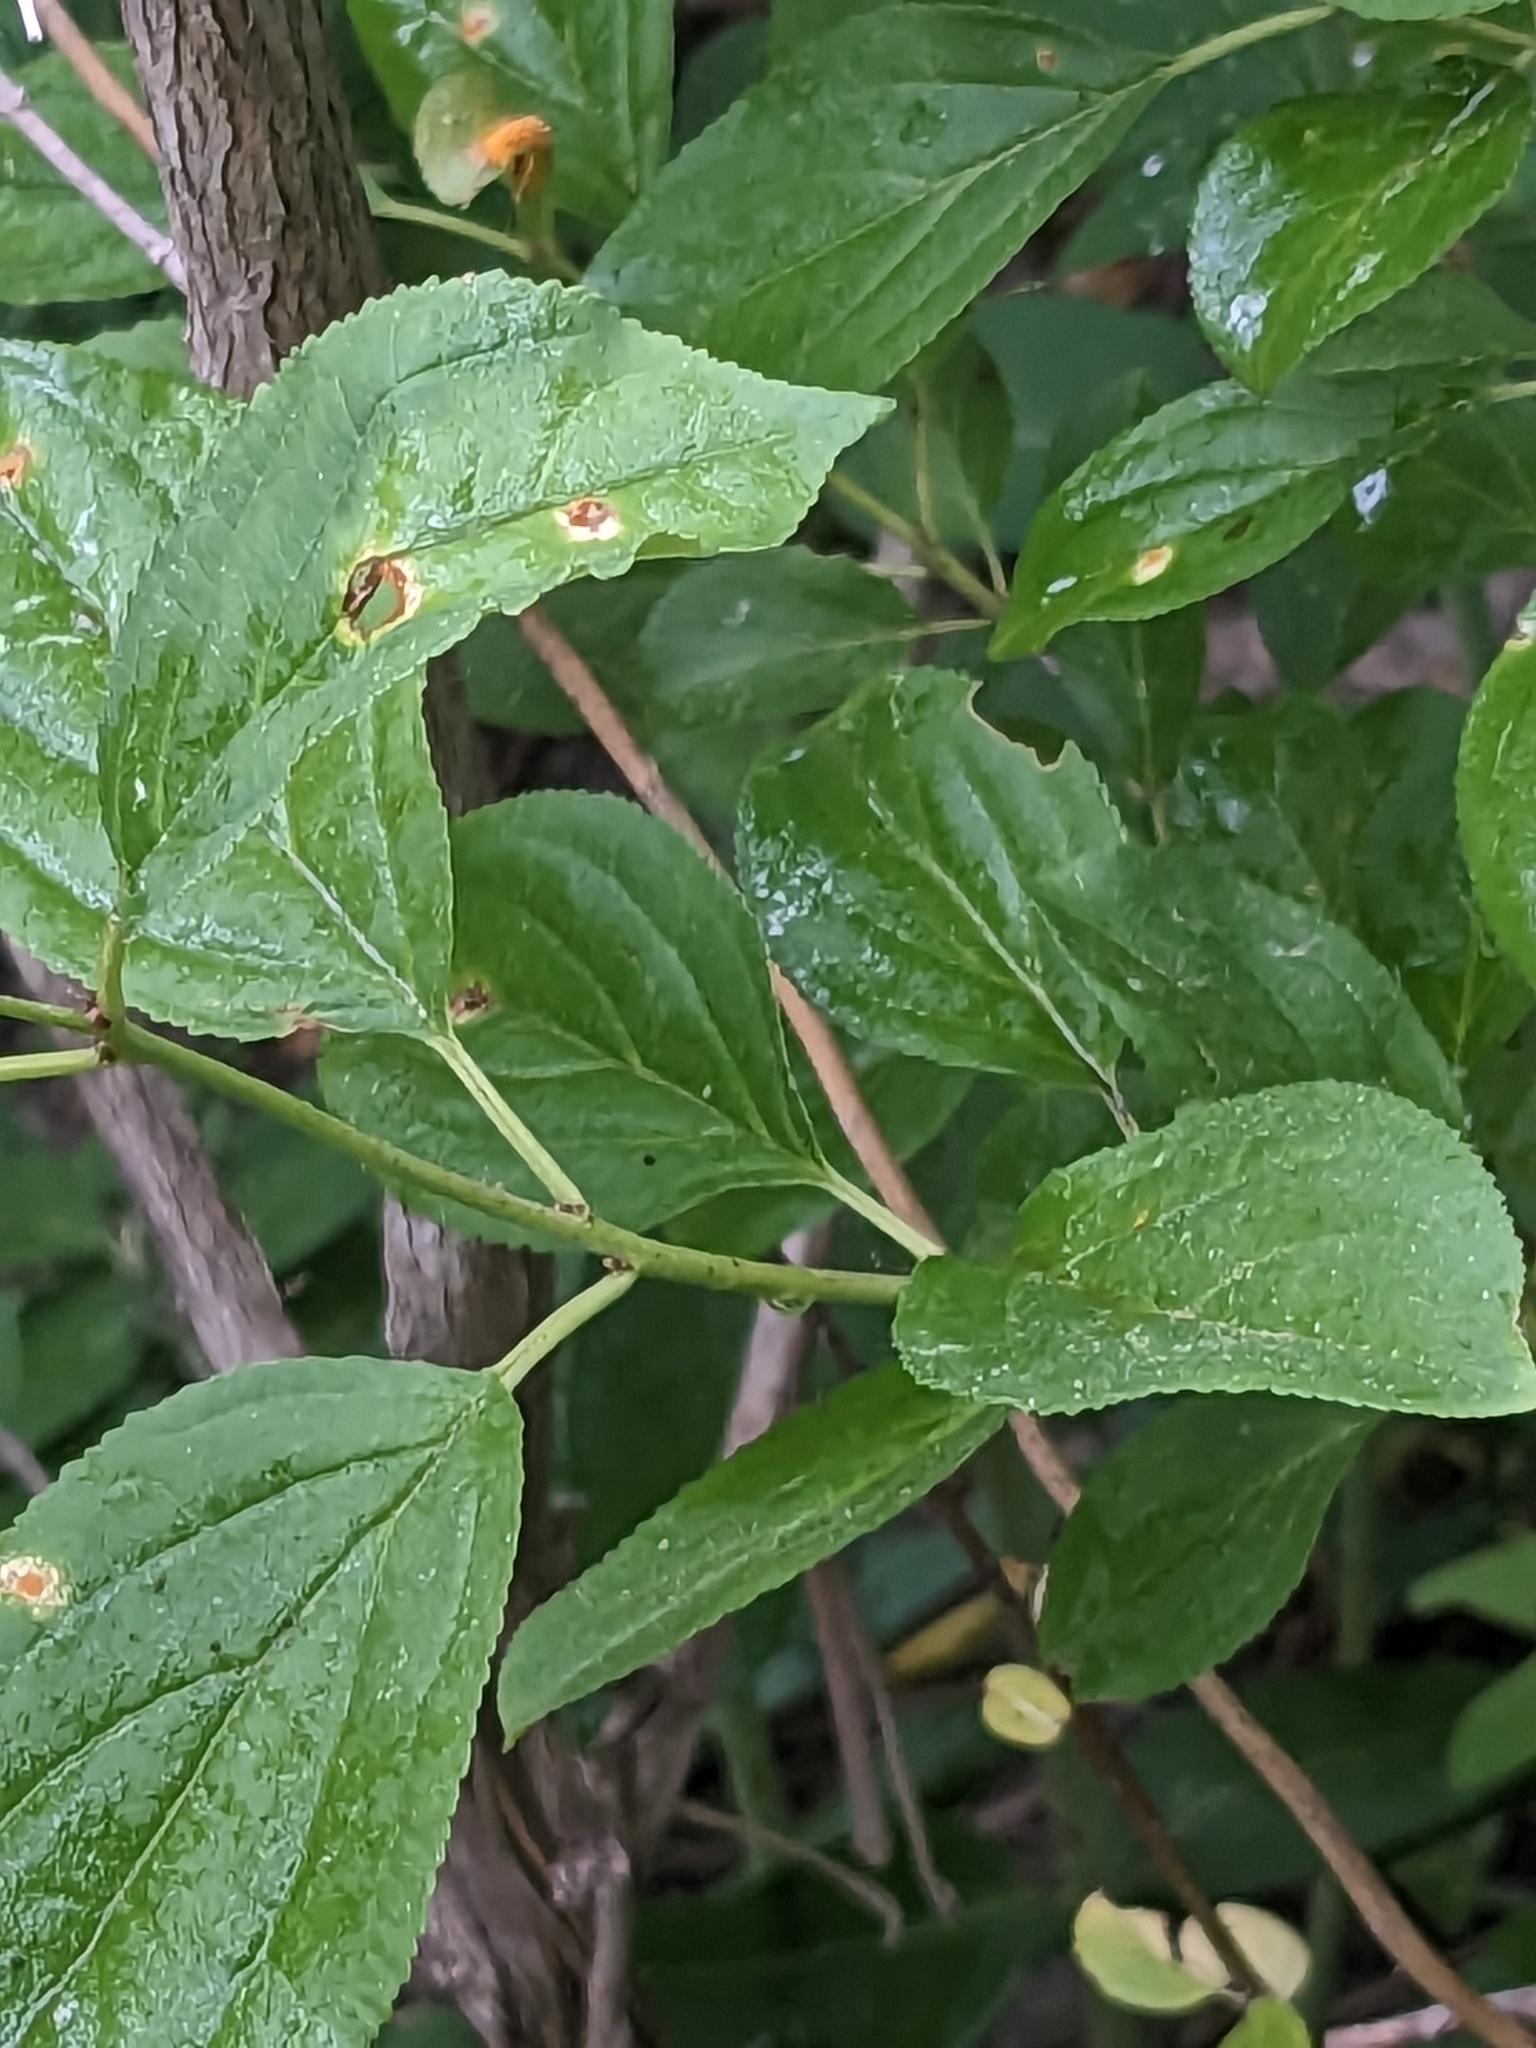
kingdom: Plantae
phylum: Tracheophyta
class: Magnoliopsida
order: Rosales
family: Rhamnaceae
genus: Rhamnus
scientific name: Rhamnus cathartica
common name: Common buckthorn
